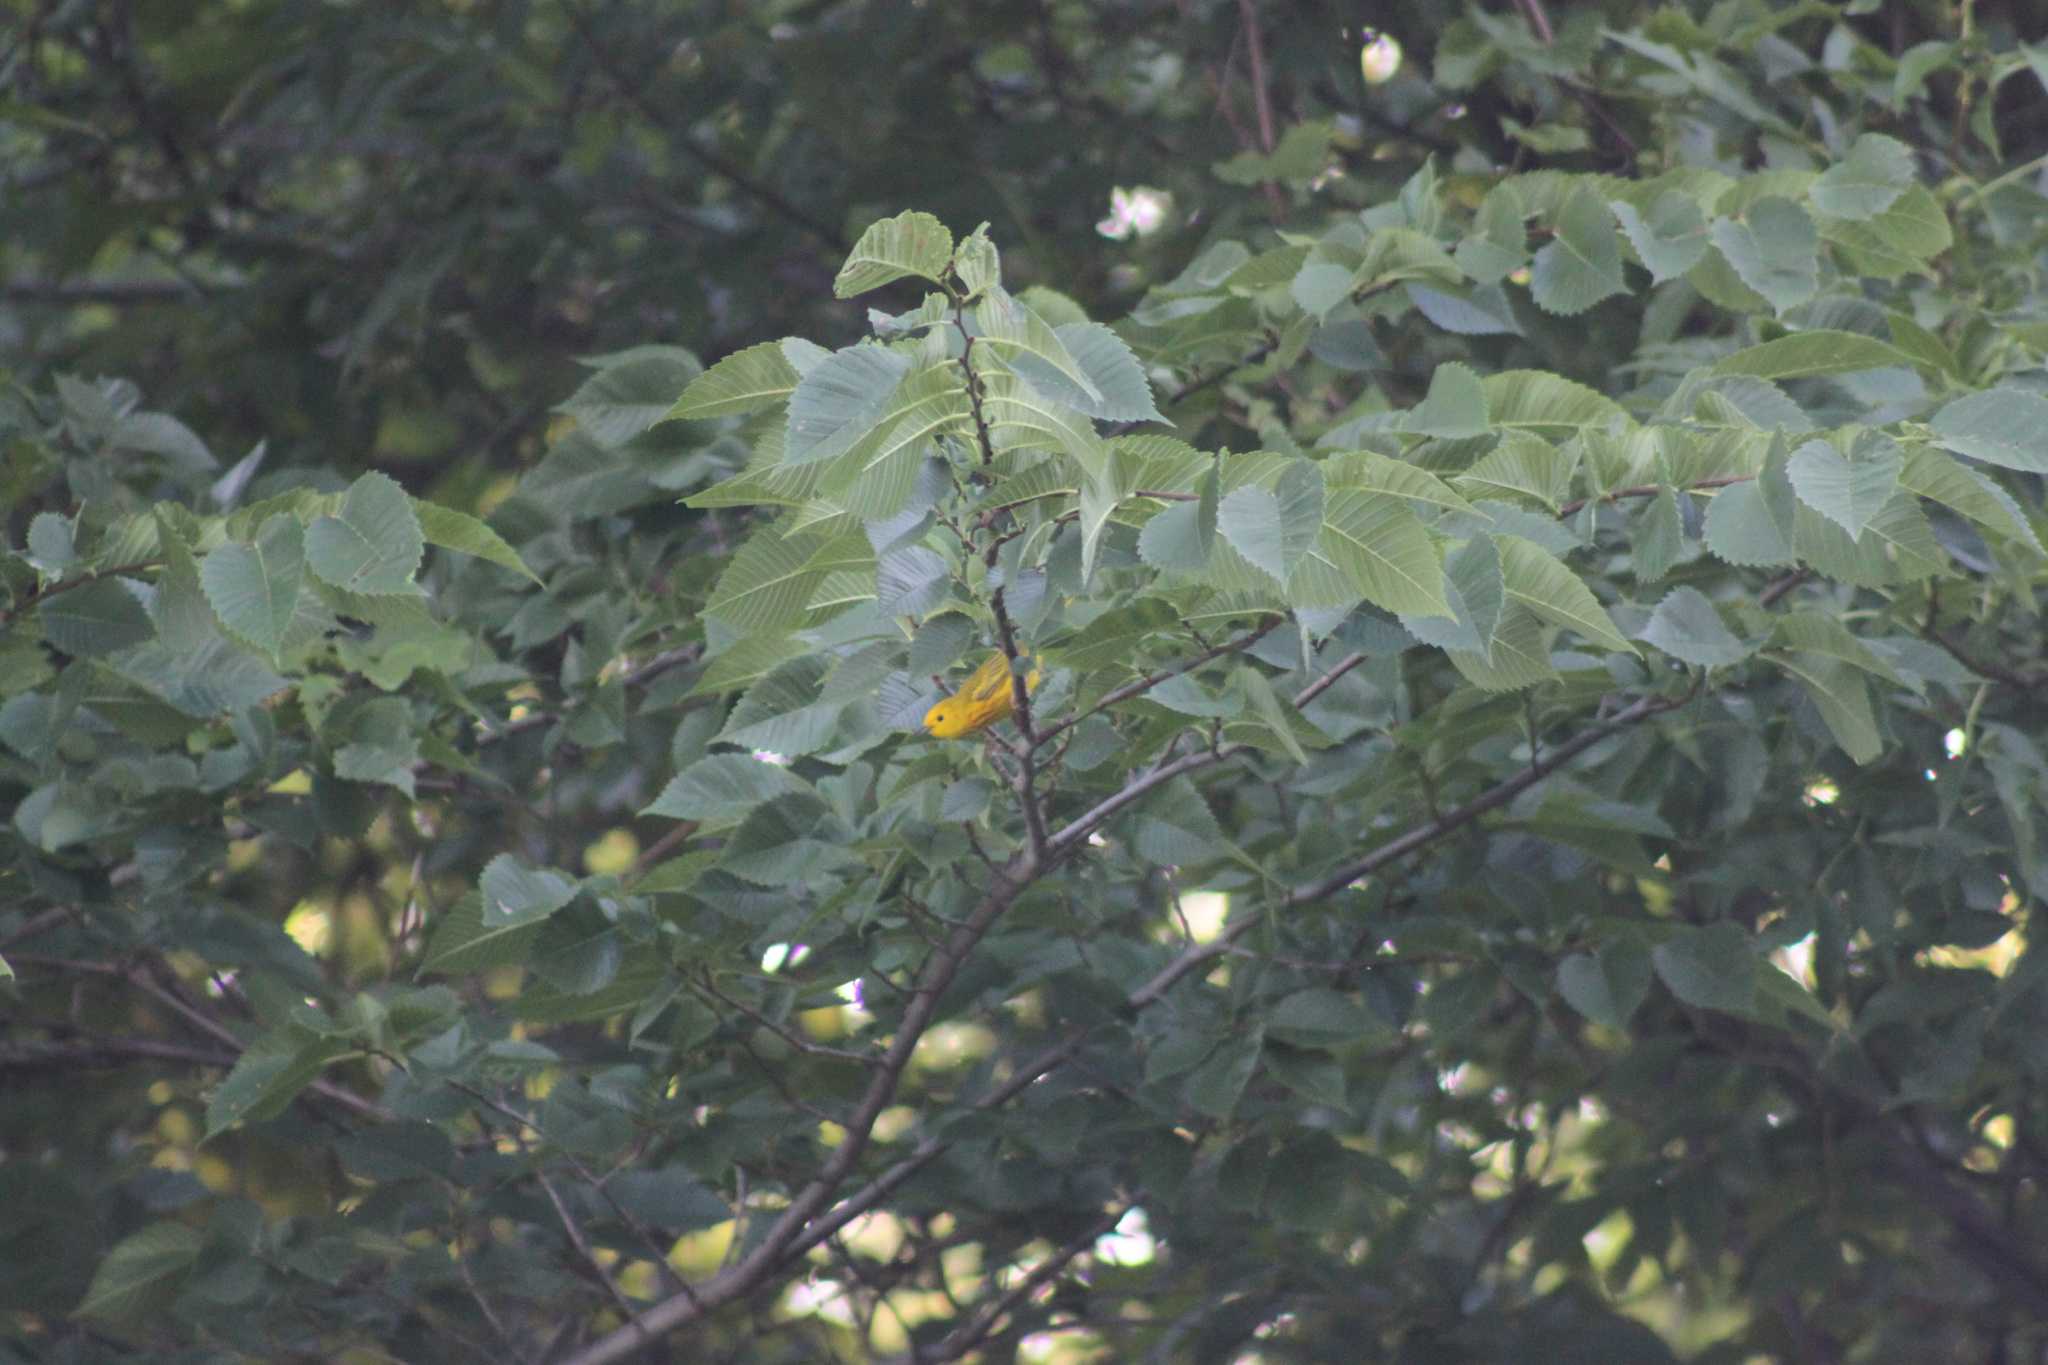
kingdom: Animalia
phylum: Chordata
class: Aves
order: Passeriformes
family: Parulidae
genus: Setophaga
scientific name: Setophaga petechia
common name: Yellow warbler
